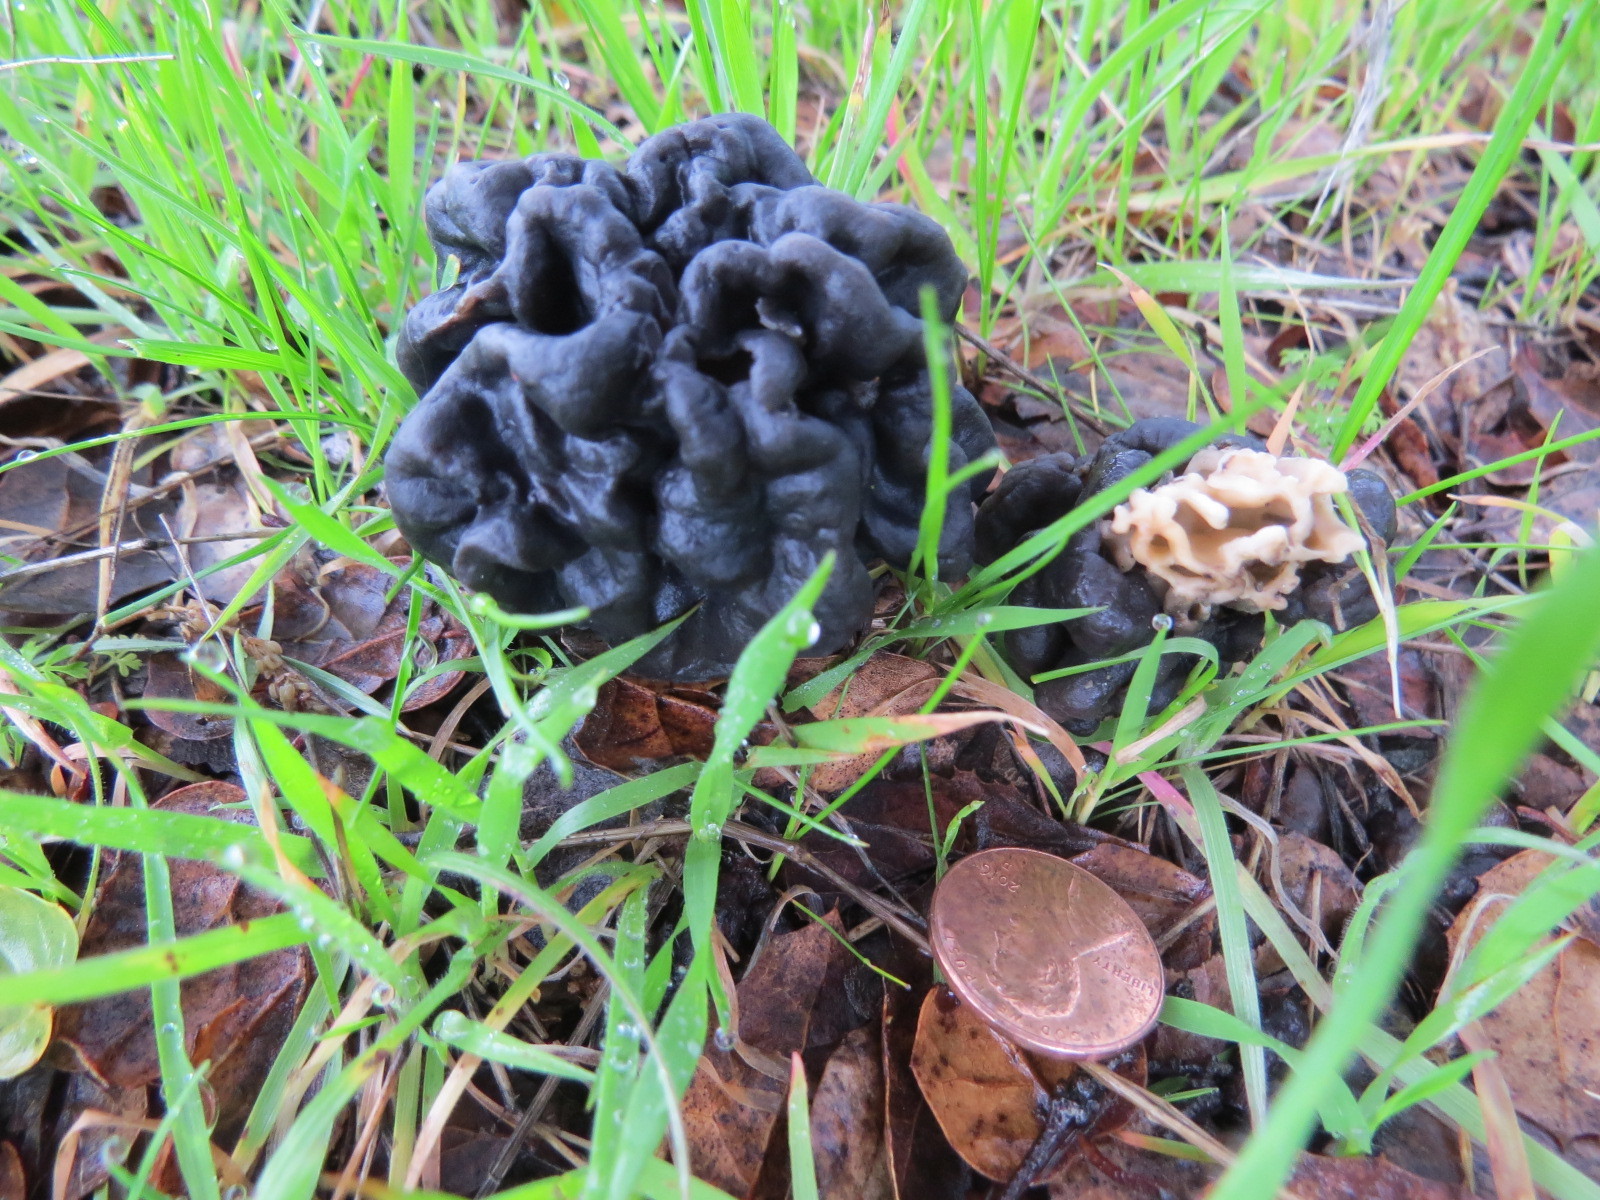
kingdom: Fungi
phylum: Ascomycota
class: Pezizomycetes
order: Pezizales
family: Helvellaceae
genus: Helvella
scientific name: Helvella dryophila
